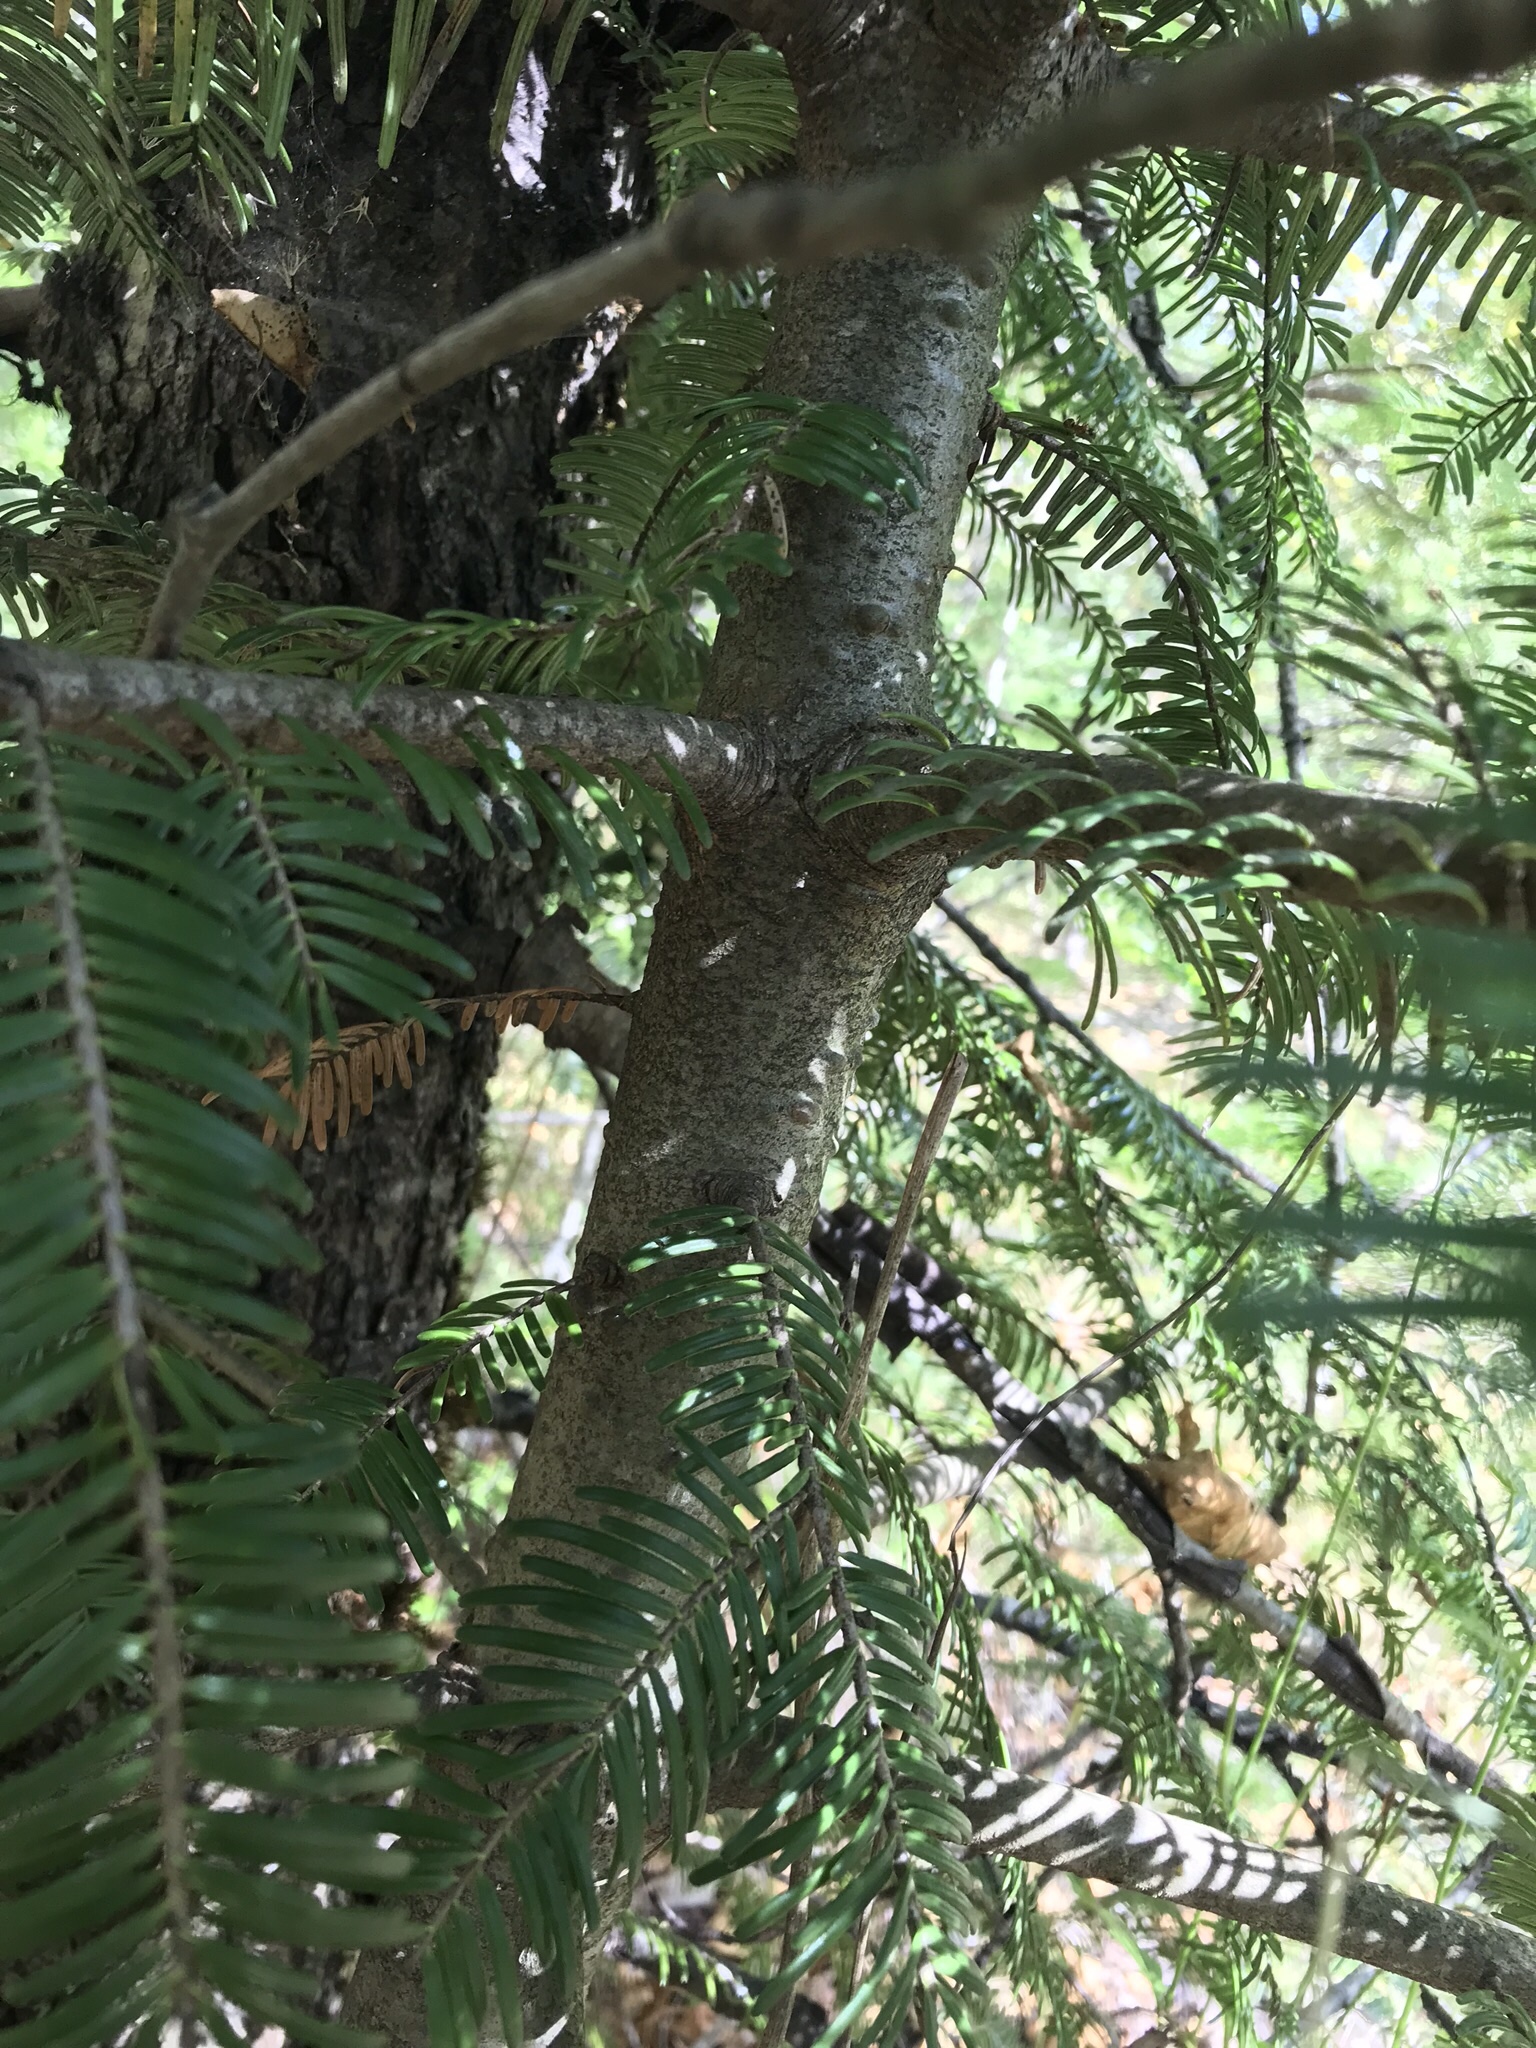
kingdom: Plantae
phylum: Tracheophyta
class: Pinopsida
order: Pinales
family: Pinaceae
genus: Abies
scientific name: Abies grandis
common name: Giant fir
